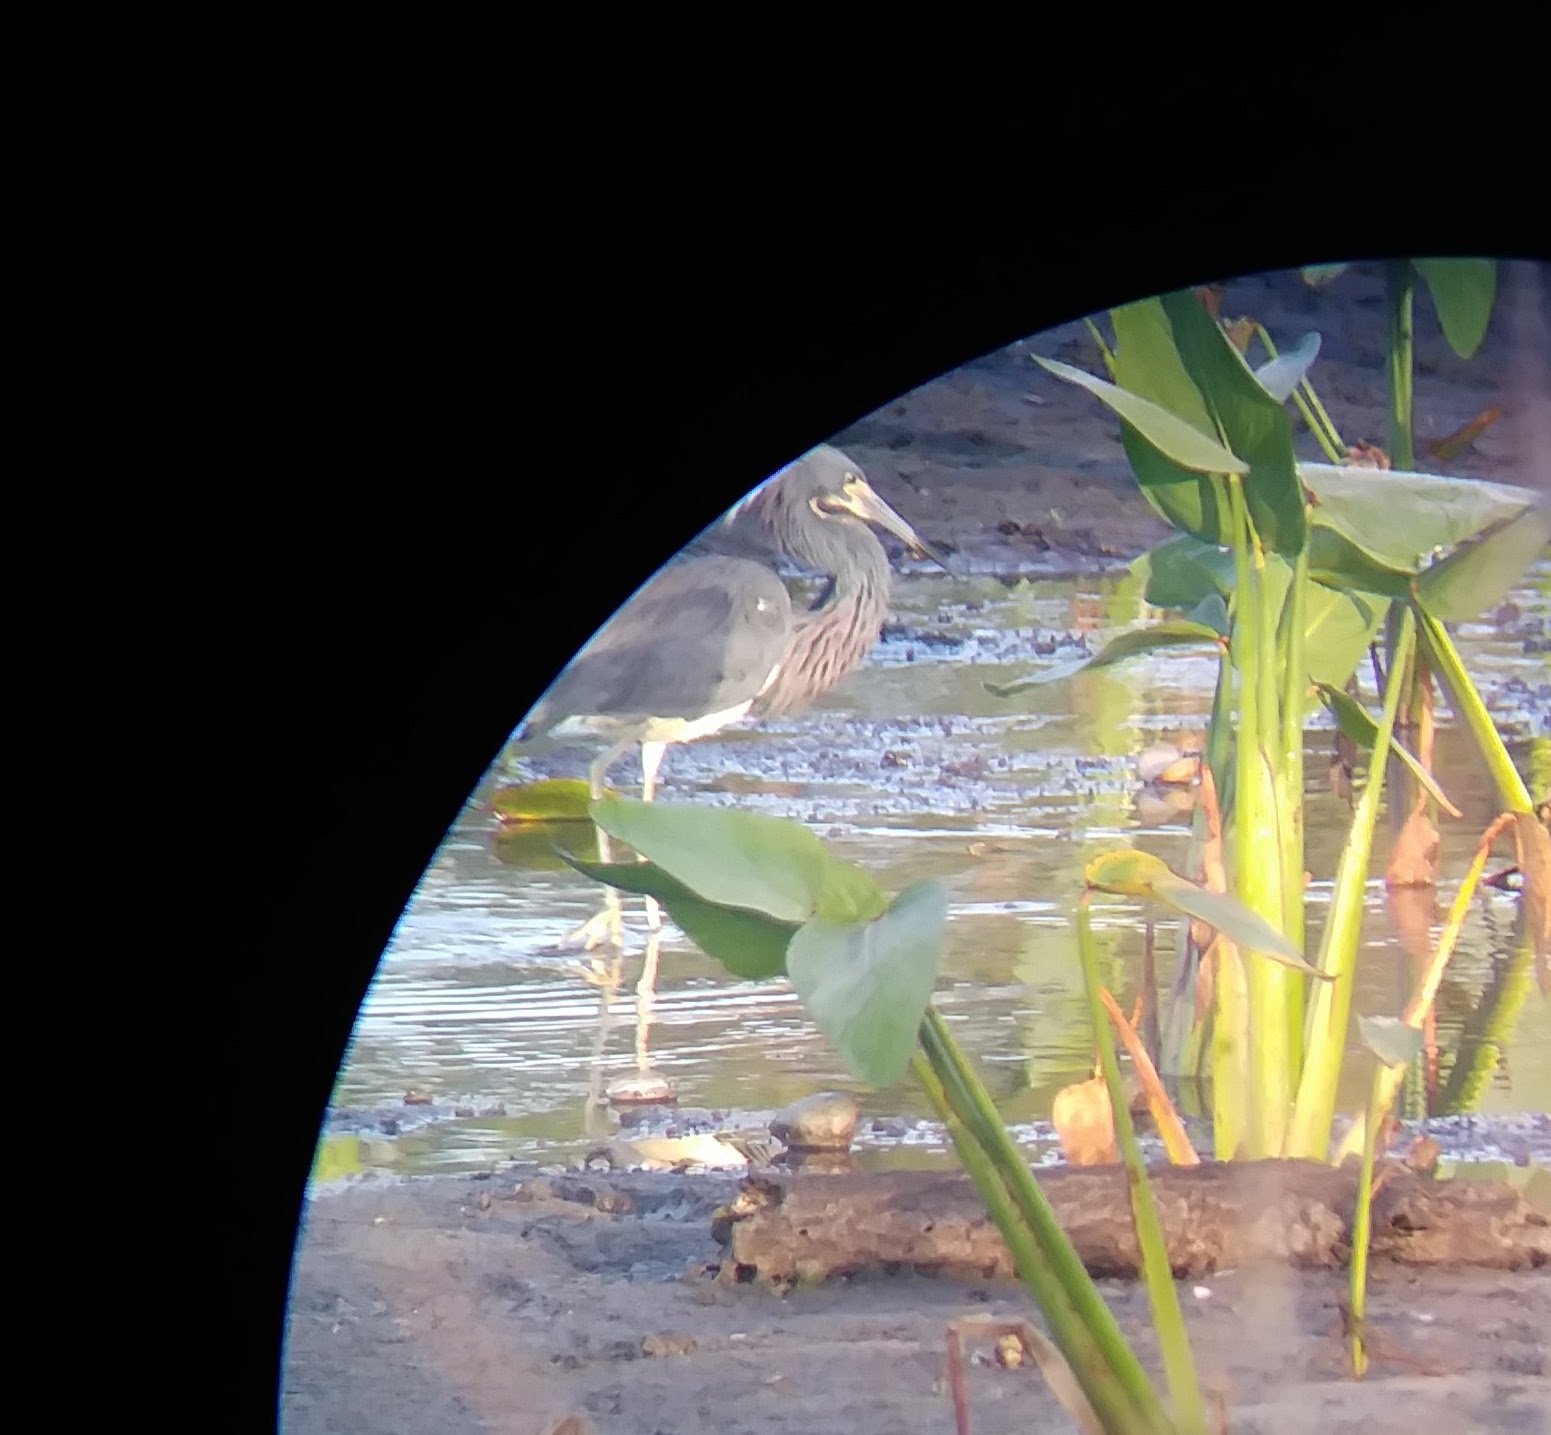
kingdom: Animalia
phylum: Chordata
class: Aves
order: Pelecaniformes
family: Ardeidae
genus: Egretta
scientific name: Egretta tricolor
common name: Tricolored heron
